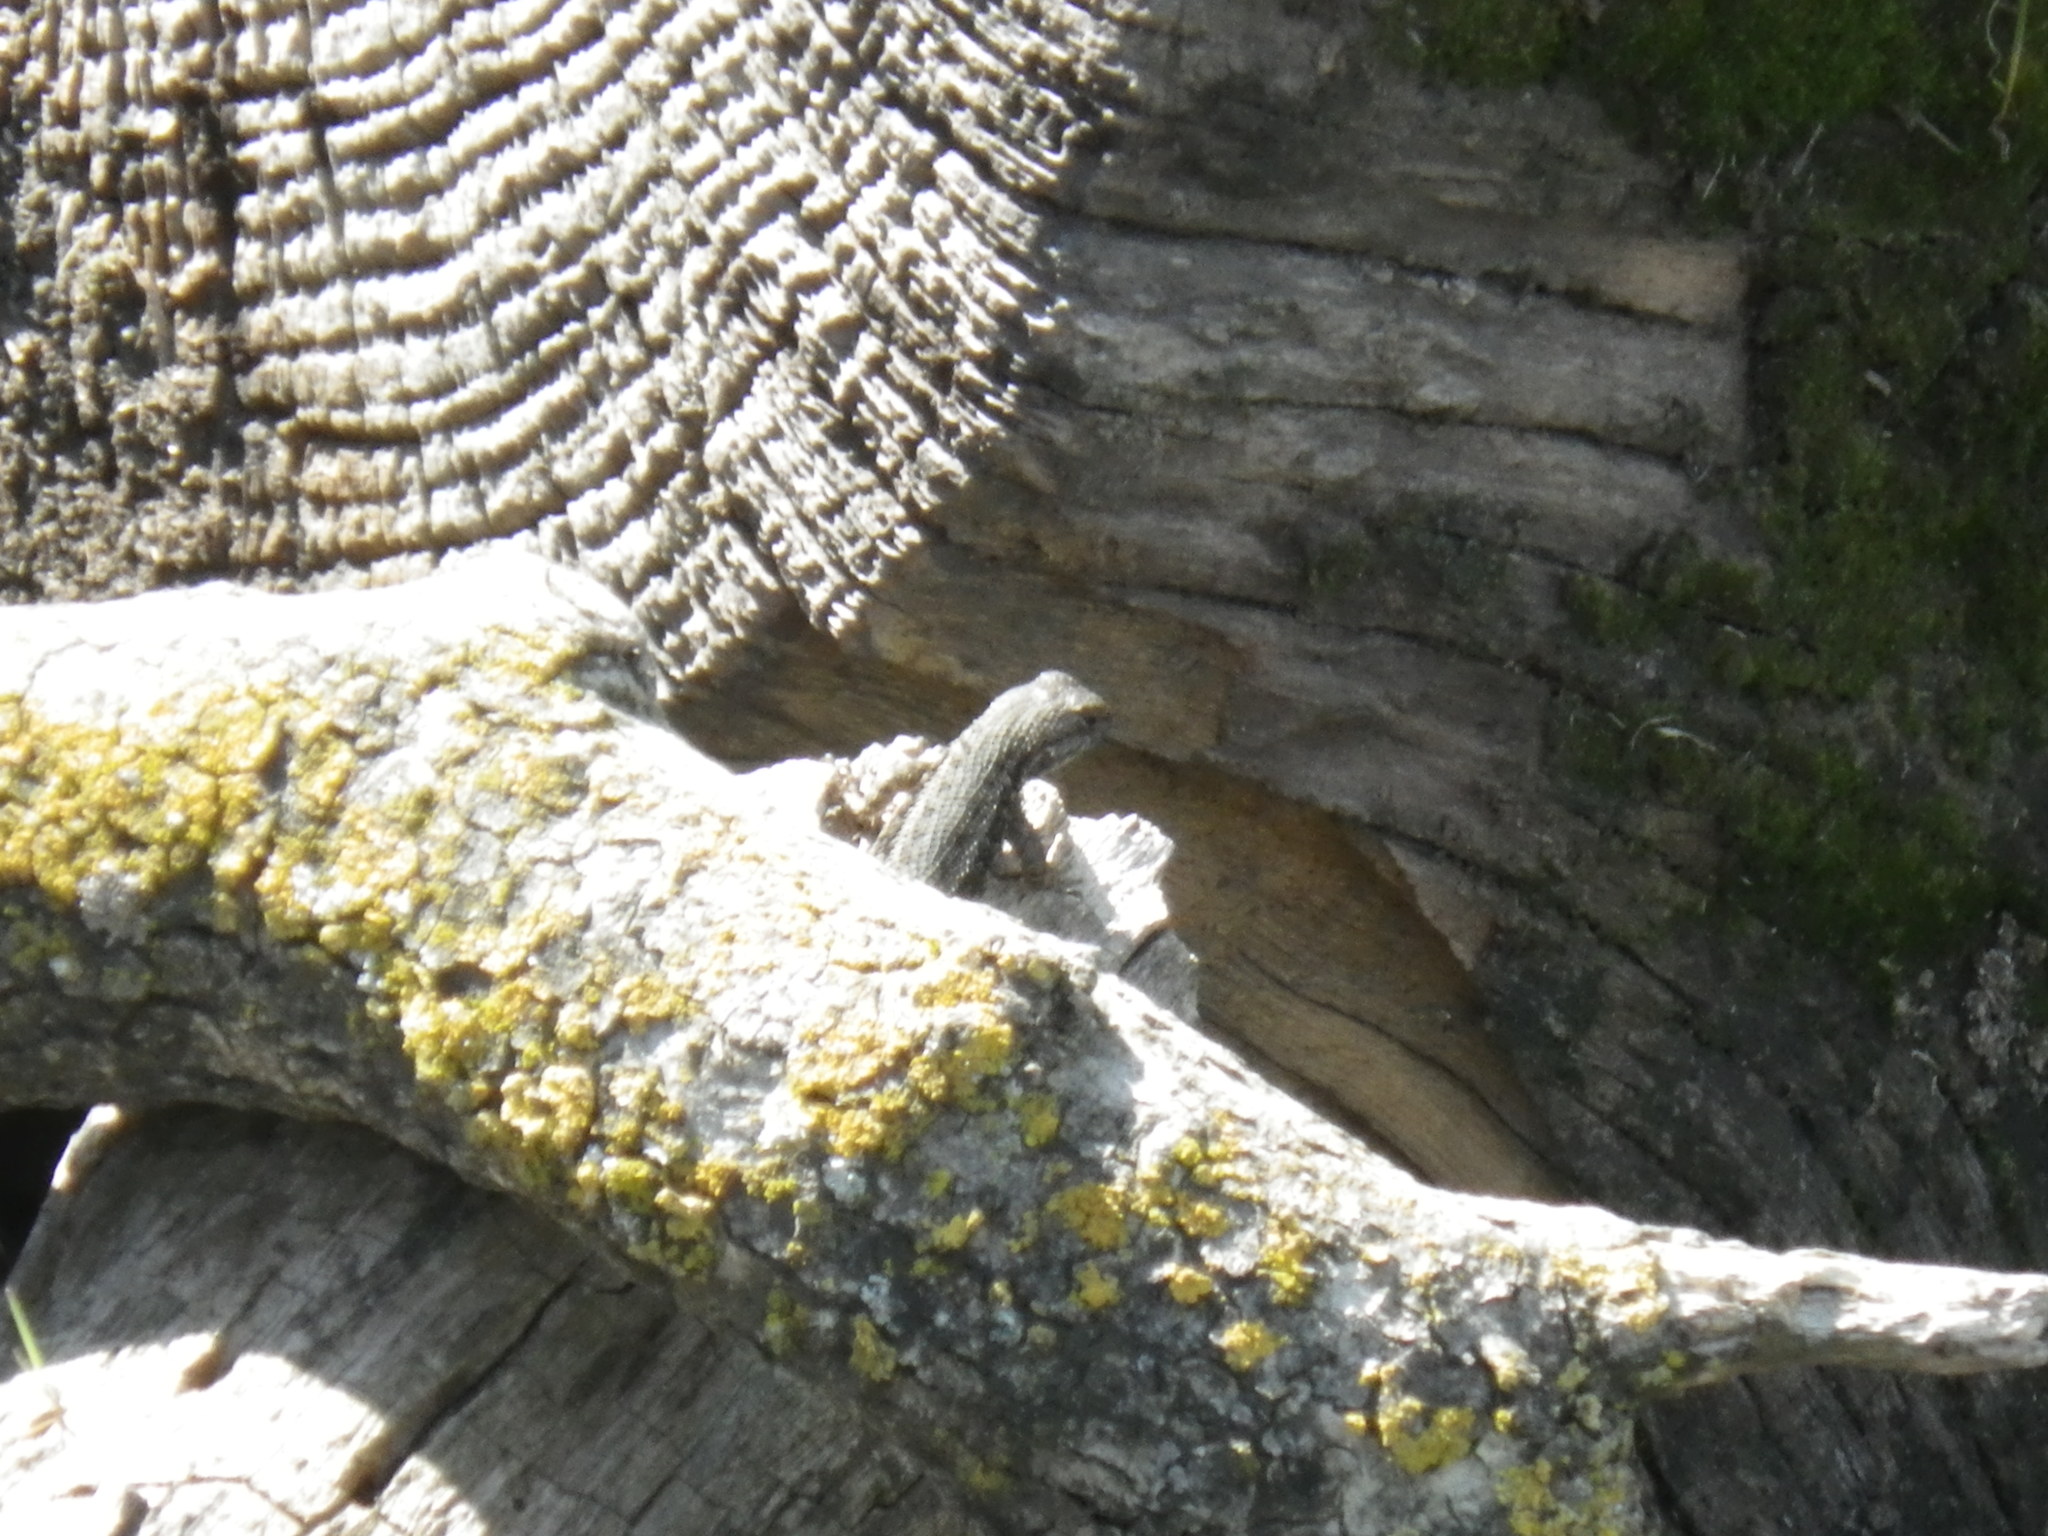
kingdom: Animalia
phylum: Chordata
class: Squamata
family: Phrynosomatidae
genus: Sceloporus
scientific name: Sceloporus occidentalis
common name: Western fence lizard
